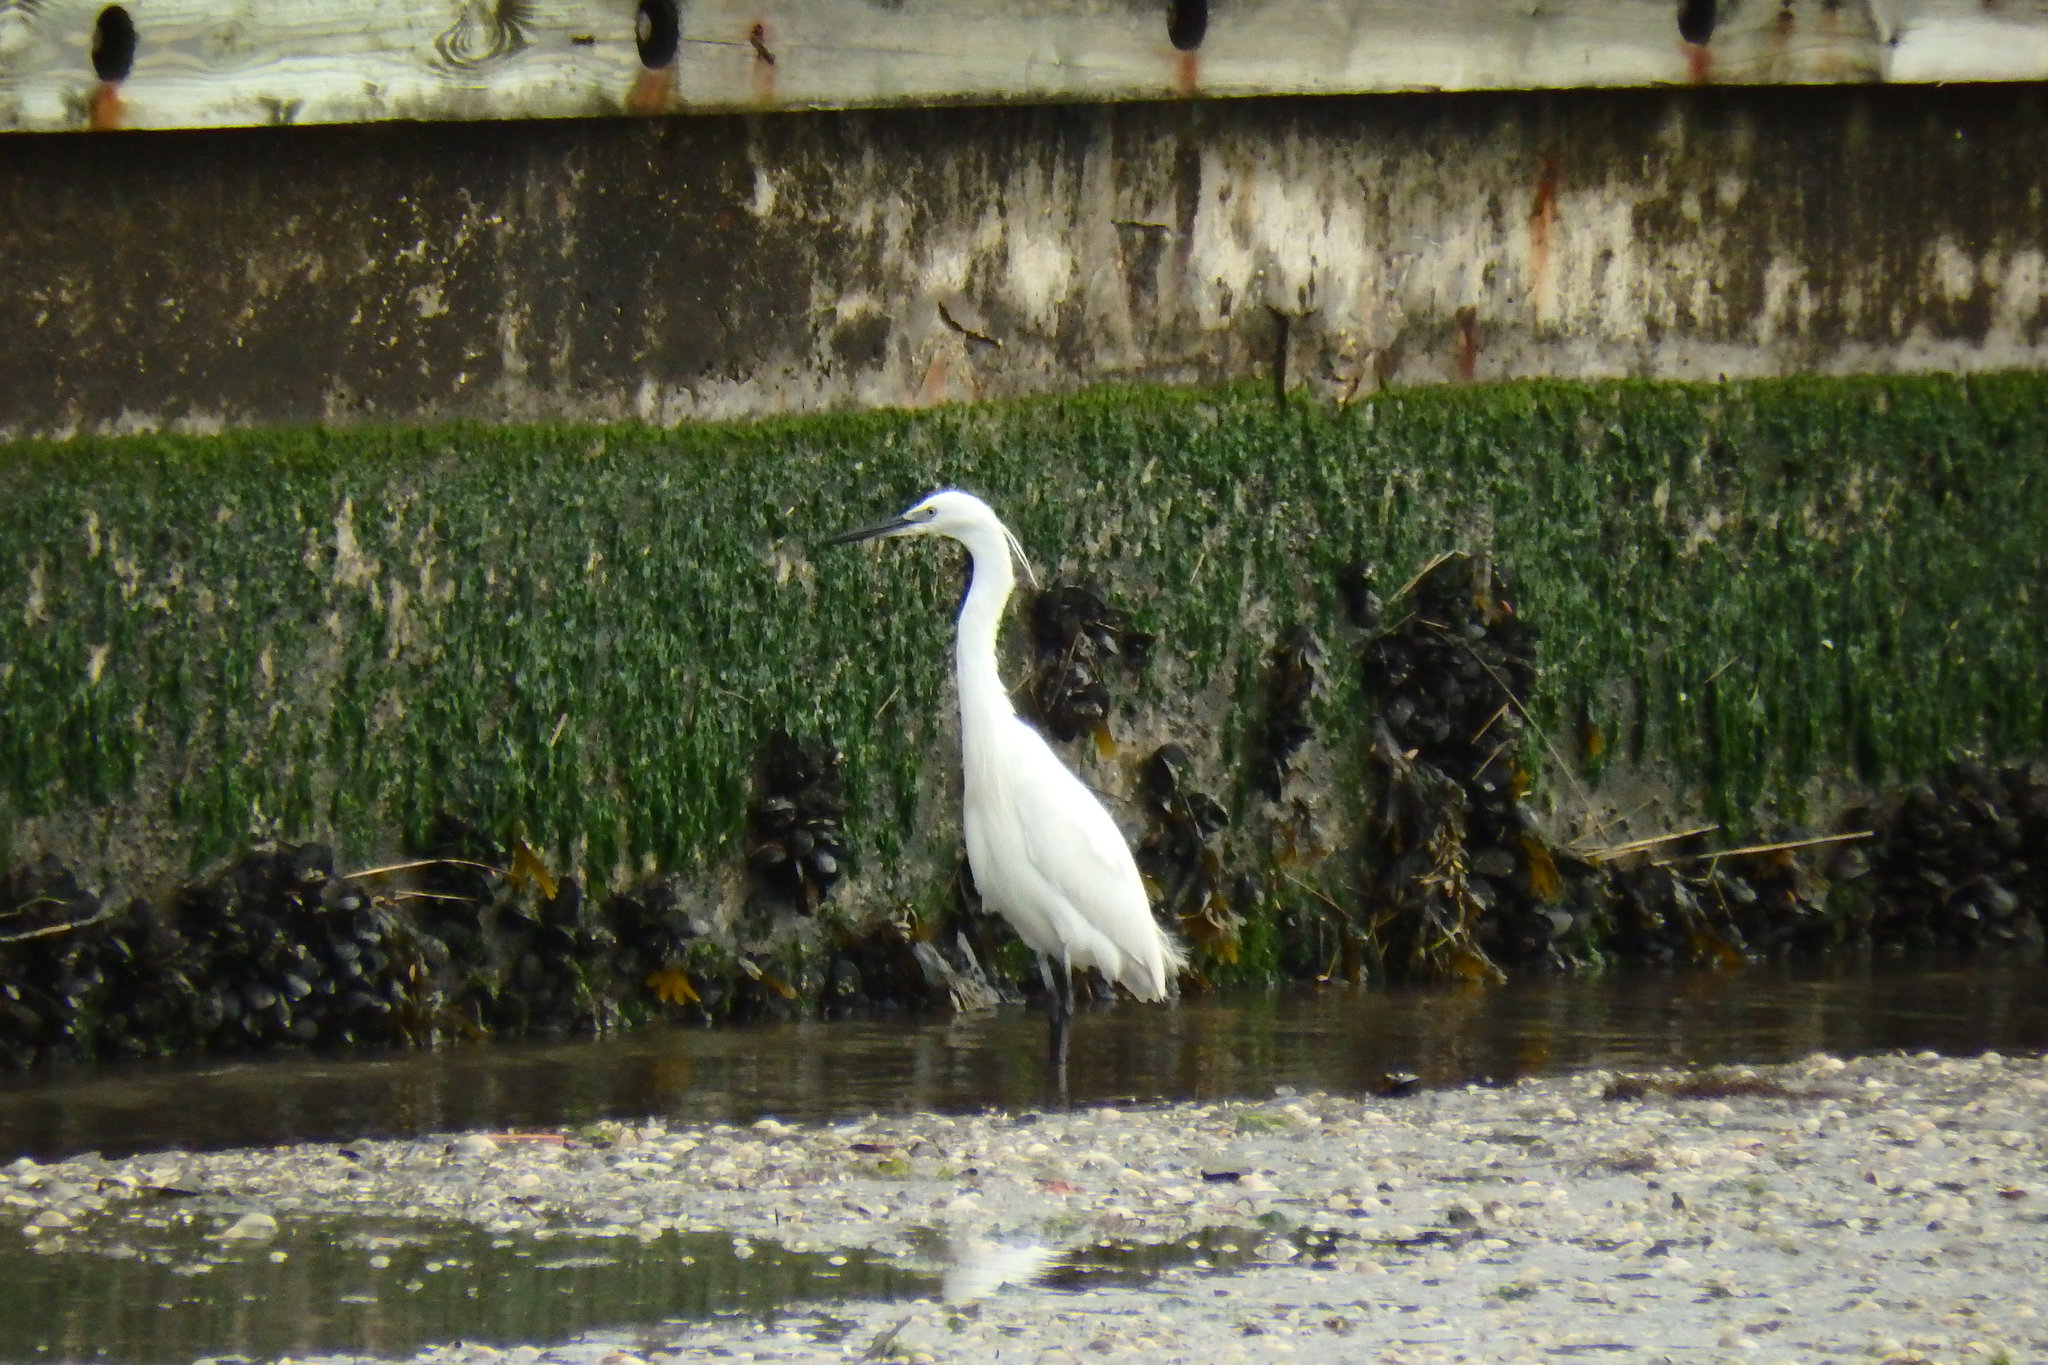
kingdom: Animalia
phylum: Chordata
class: Aves
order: Pelecaniformes
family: Ardeidae
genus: Egretta
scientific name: Egretta garzetta
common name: Little egret
